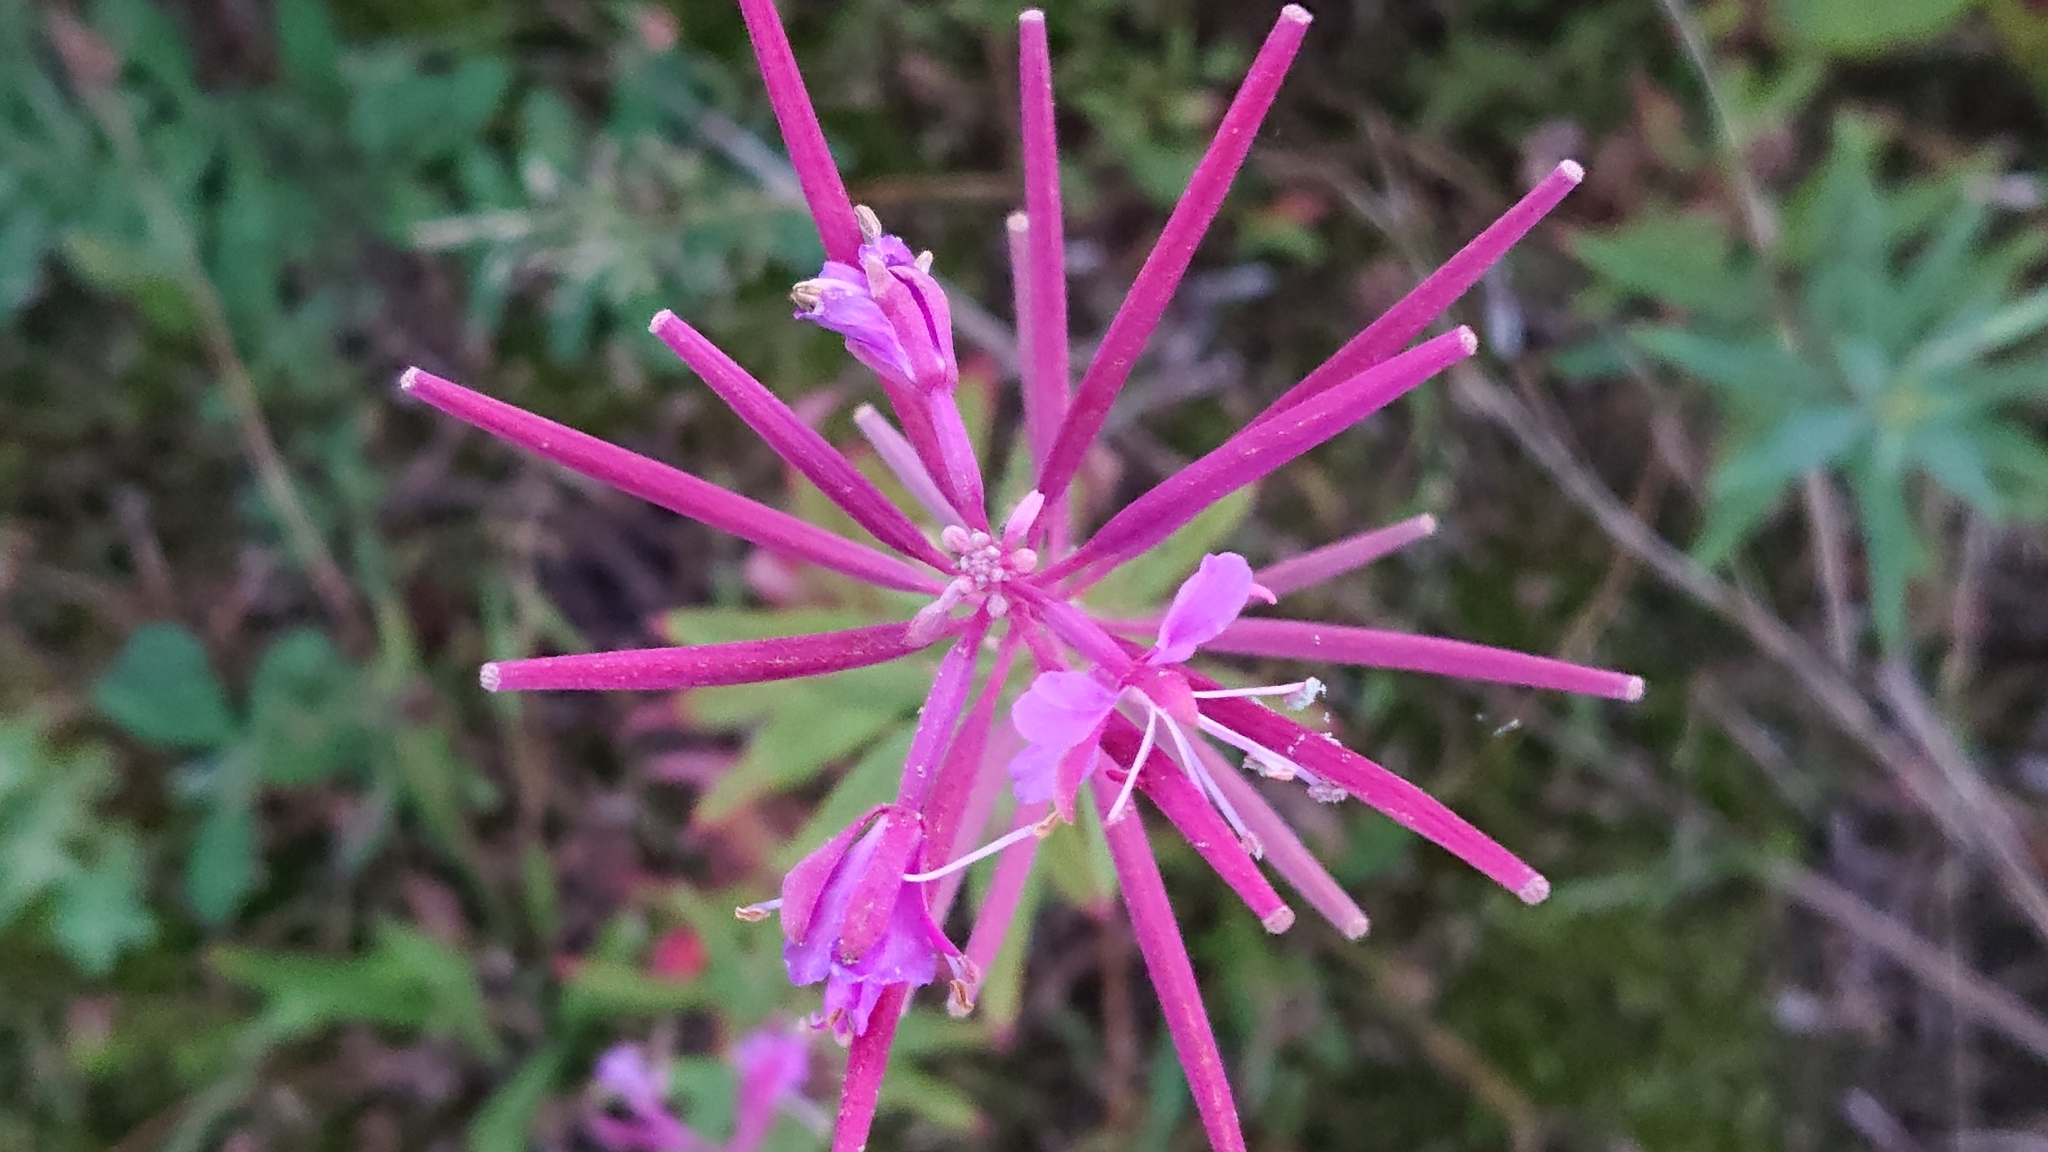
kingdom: Plantae
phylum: Tracheophyta
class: Magnoliopsida
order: Myrtales
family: Onagraceae
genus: Chamaenerion
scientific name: Chamaenerion angustifolium
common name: Fireweed
